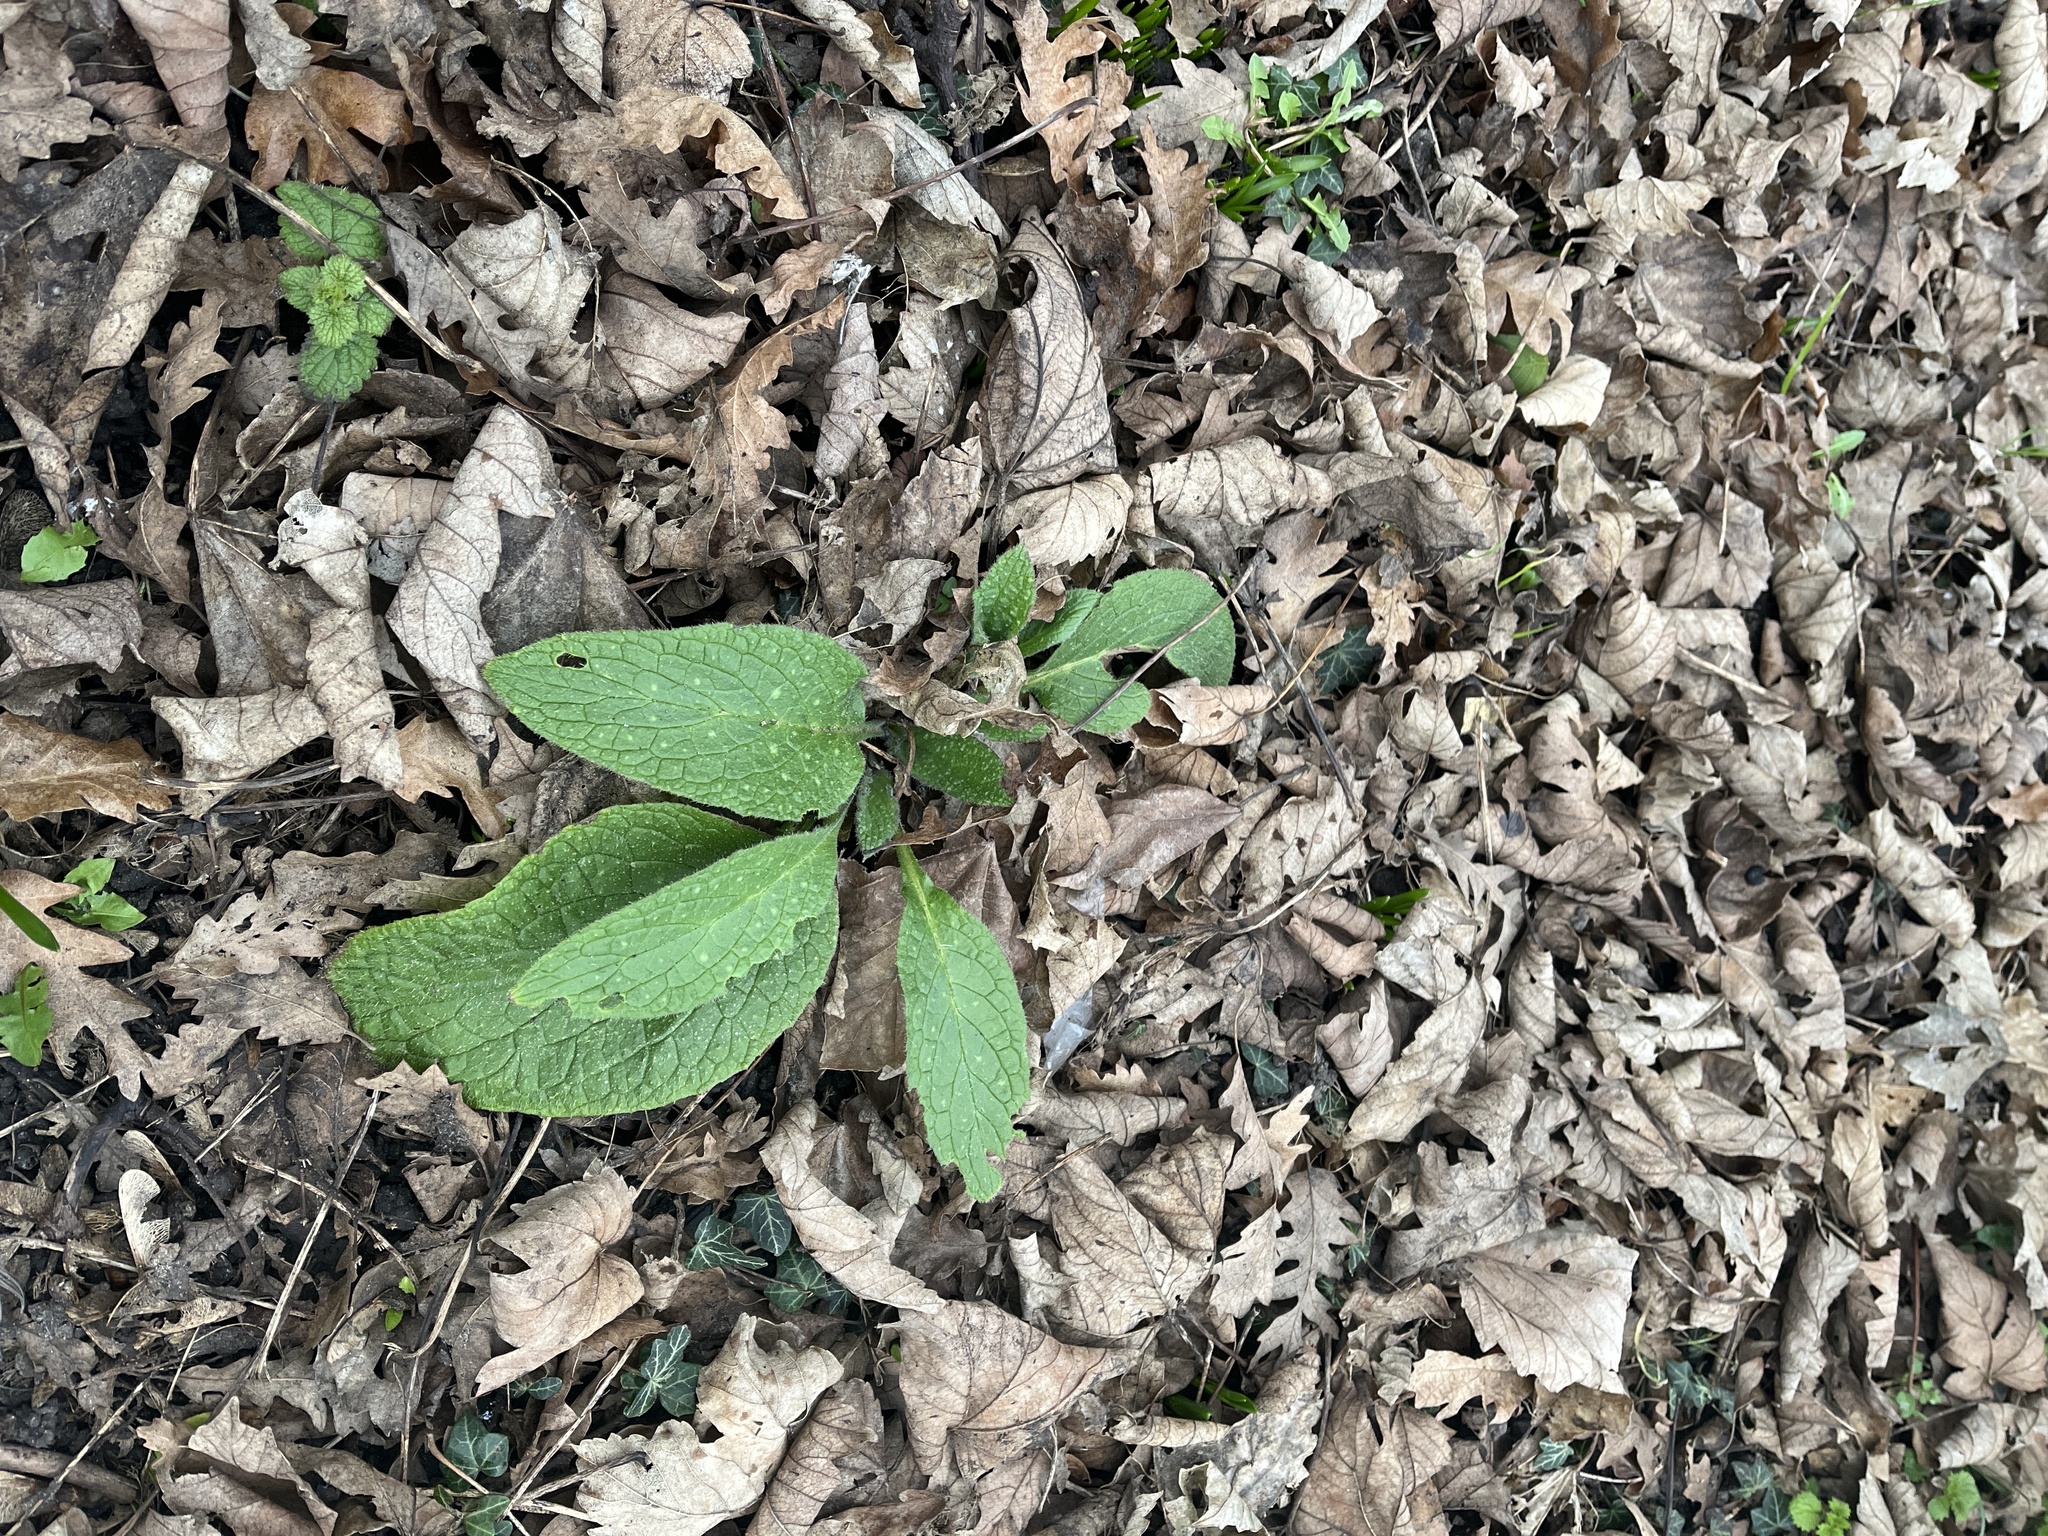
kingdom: Plantae
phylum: Tracheophyta
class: Magnoliopsida
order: Boraginales
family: Boraginaceae
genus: Pentaglottis
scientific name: Pentaglottis sempervirens
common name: Green alkanet
